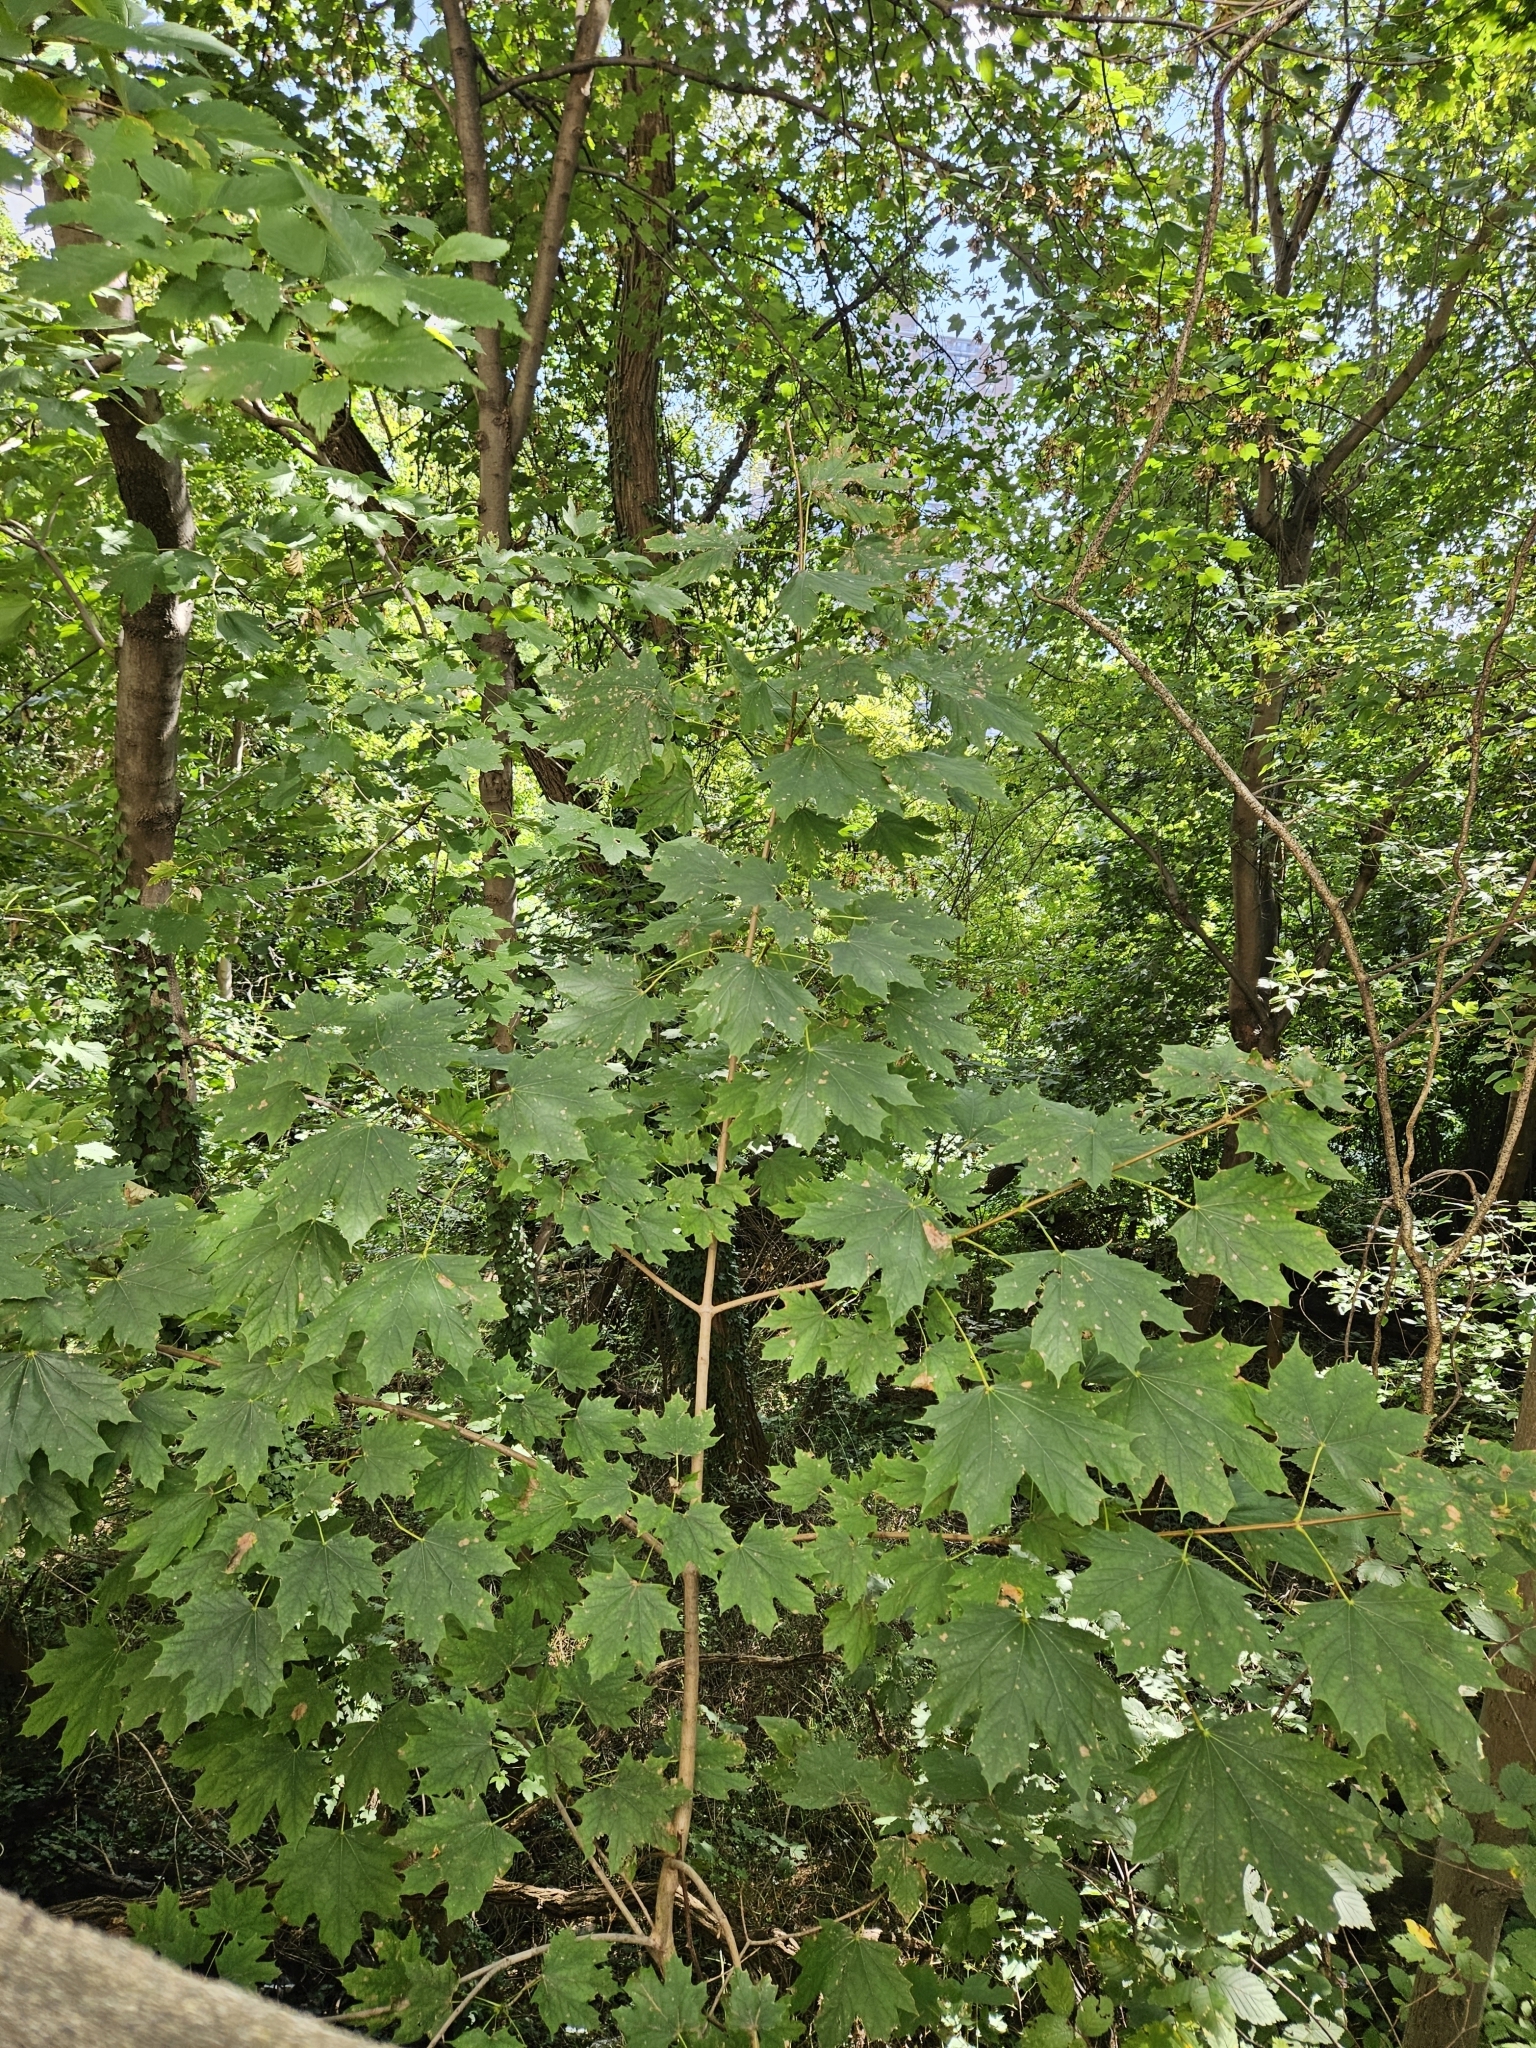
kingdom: Plantae
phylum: Tracheophyta
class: Magnoliopsida
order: Sapindales
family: Sapindaceae
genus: Acer
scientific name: Acer platanoides
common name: Norway maple
